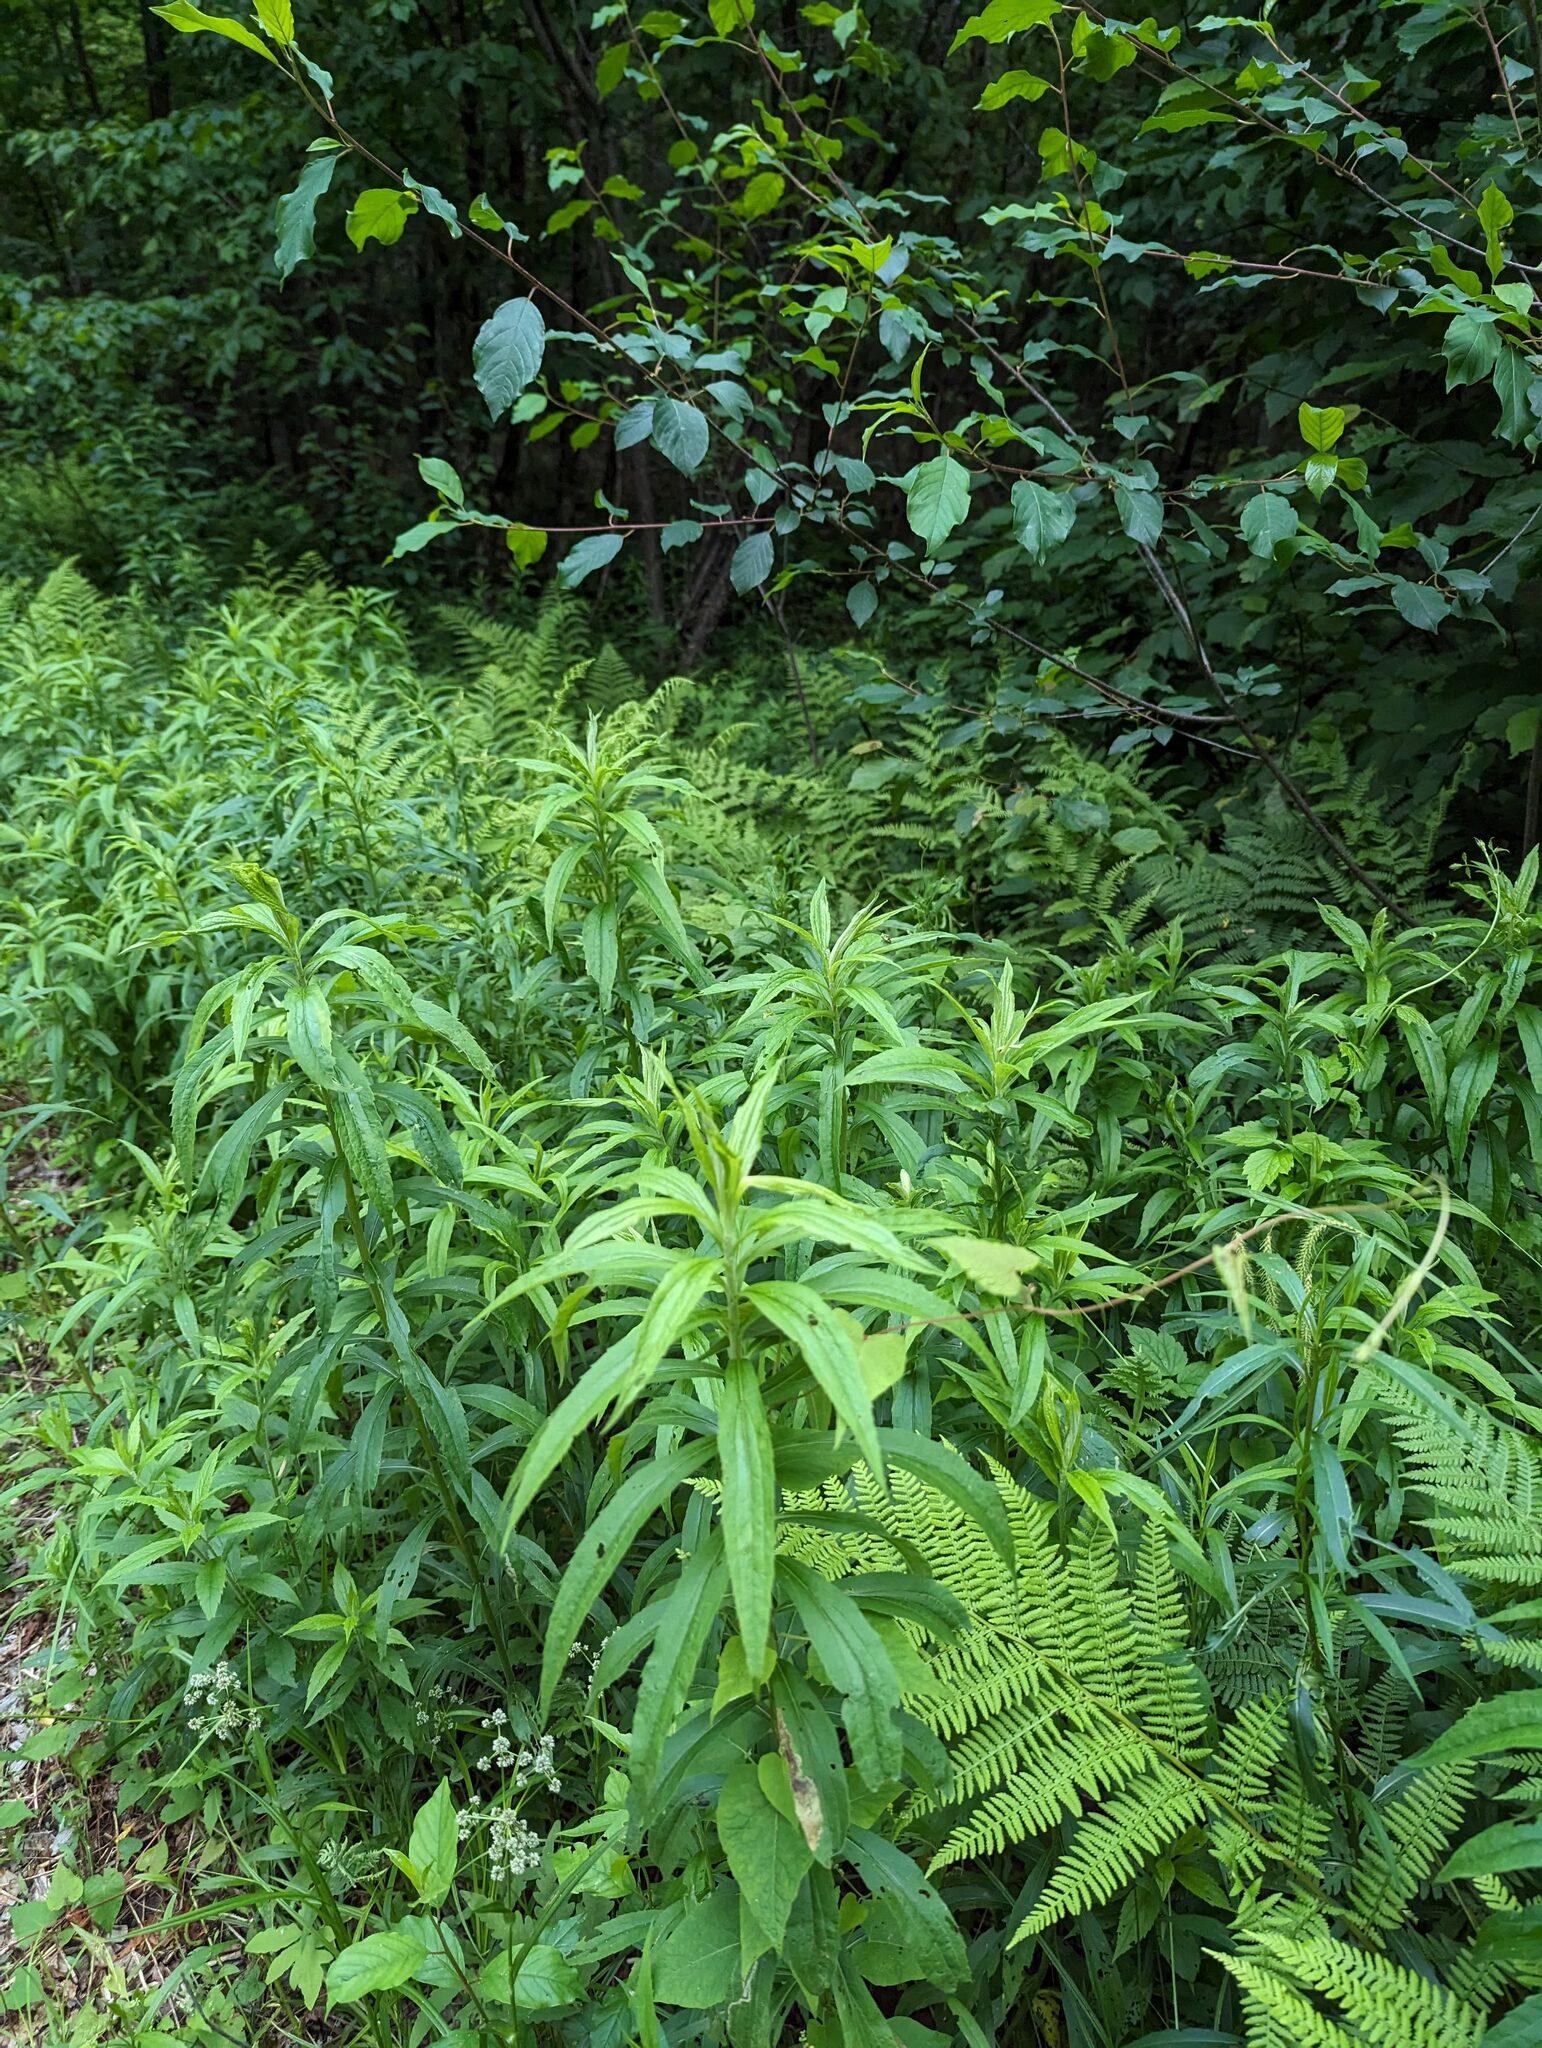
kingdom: Plantae
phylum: Tracheophyta
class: Magnoliopsida
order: Asterales
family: Asteraceae
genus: Solidago
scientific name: Solidago canadensis
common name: Canada goldenrod
